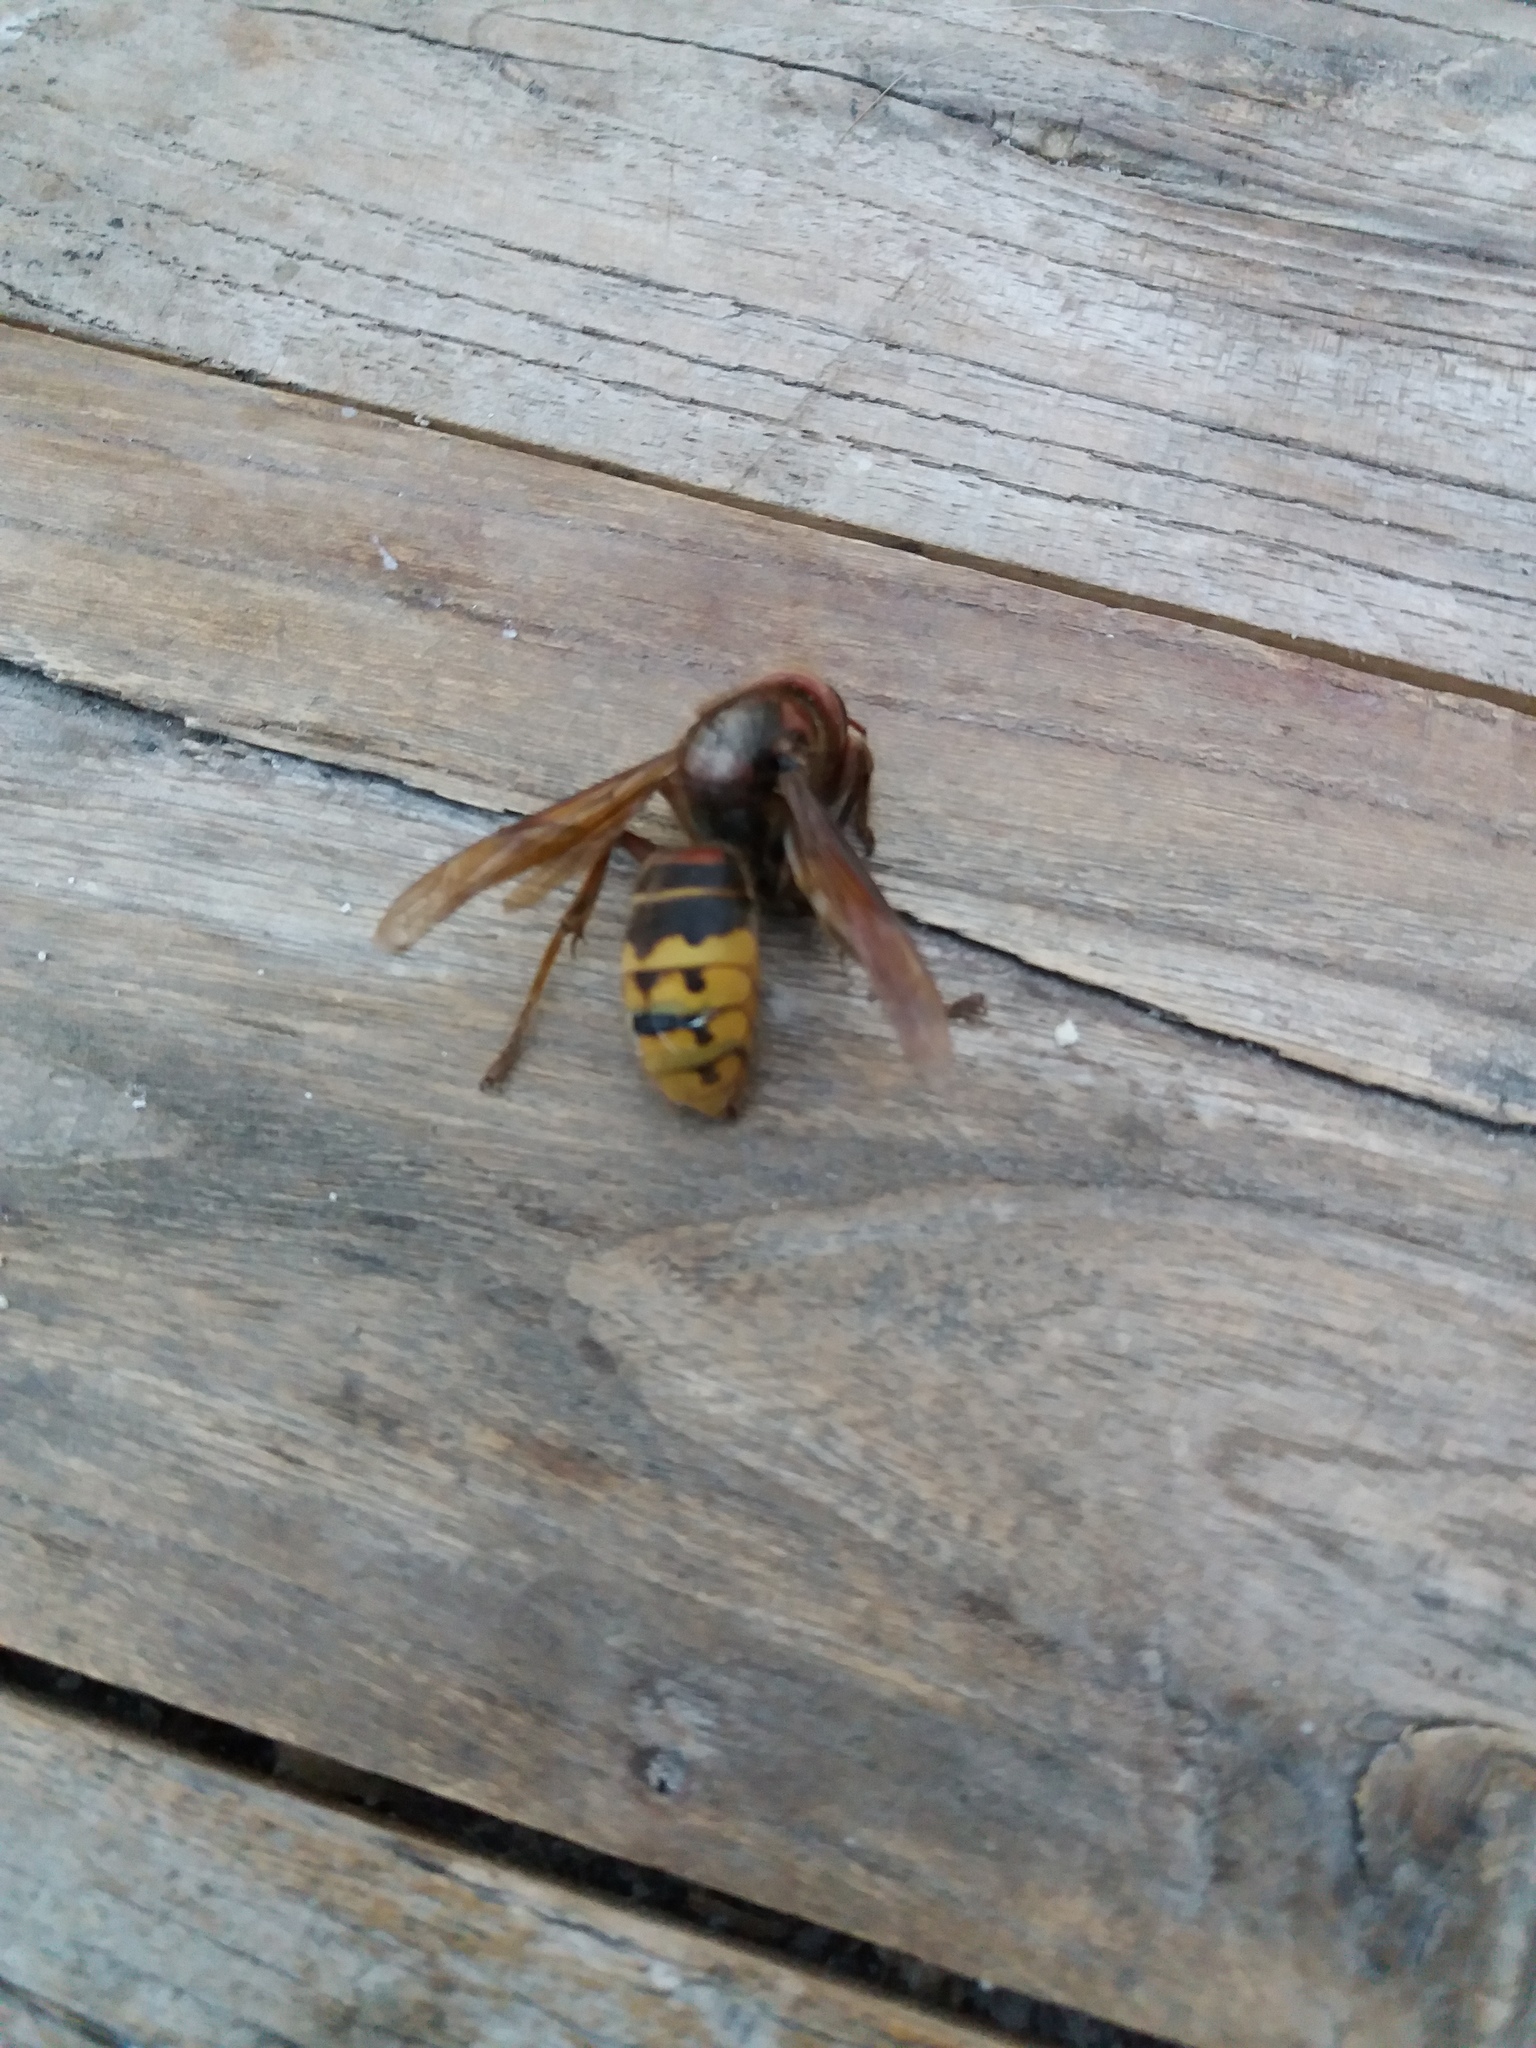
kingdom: Animalia
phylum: Arthropoda
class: Insecta
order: Hymenoptera
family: Vespidae
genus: Vespa
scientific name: Vespa crabro
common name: Hornet
